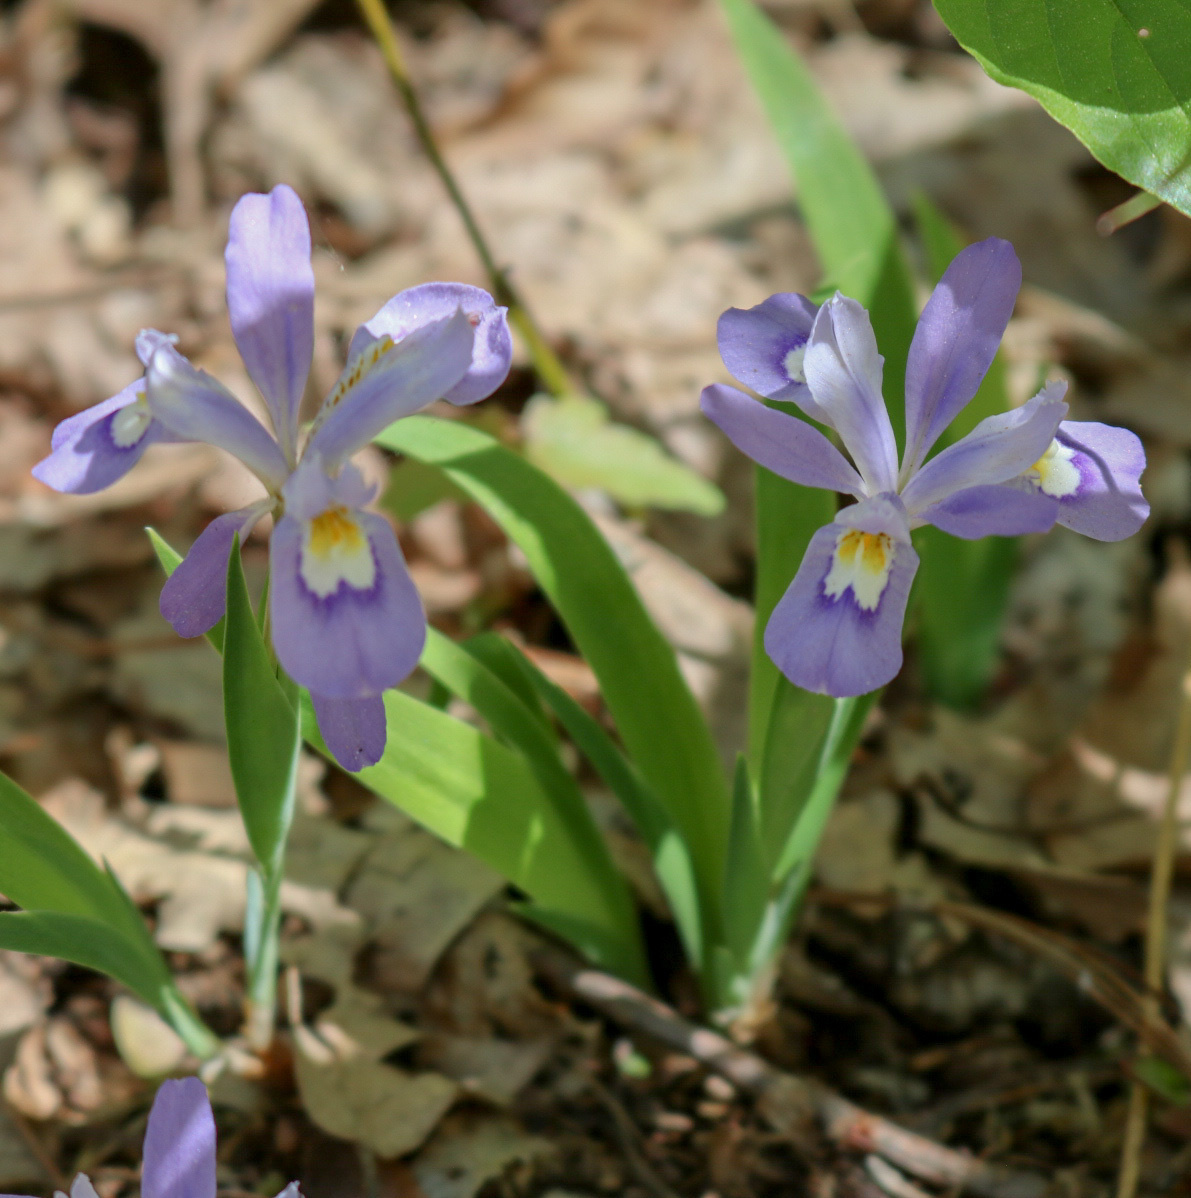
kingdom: Plantae
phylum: Tracheophyta
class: Liliopsida
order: Asparagales
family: Iridaceae
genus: Iris
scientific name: Iris cristata
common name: Crested iris
